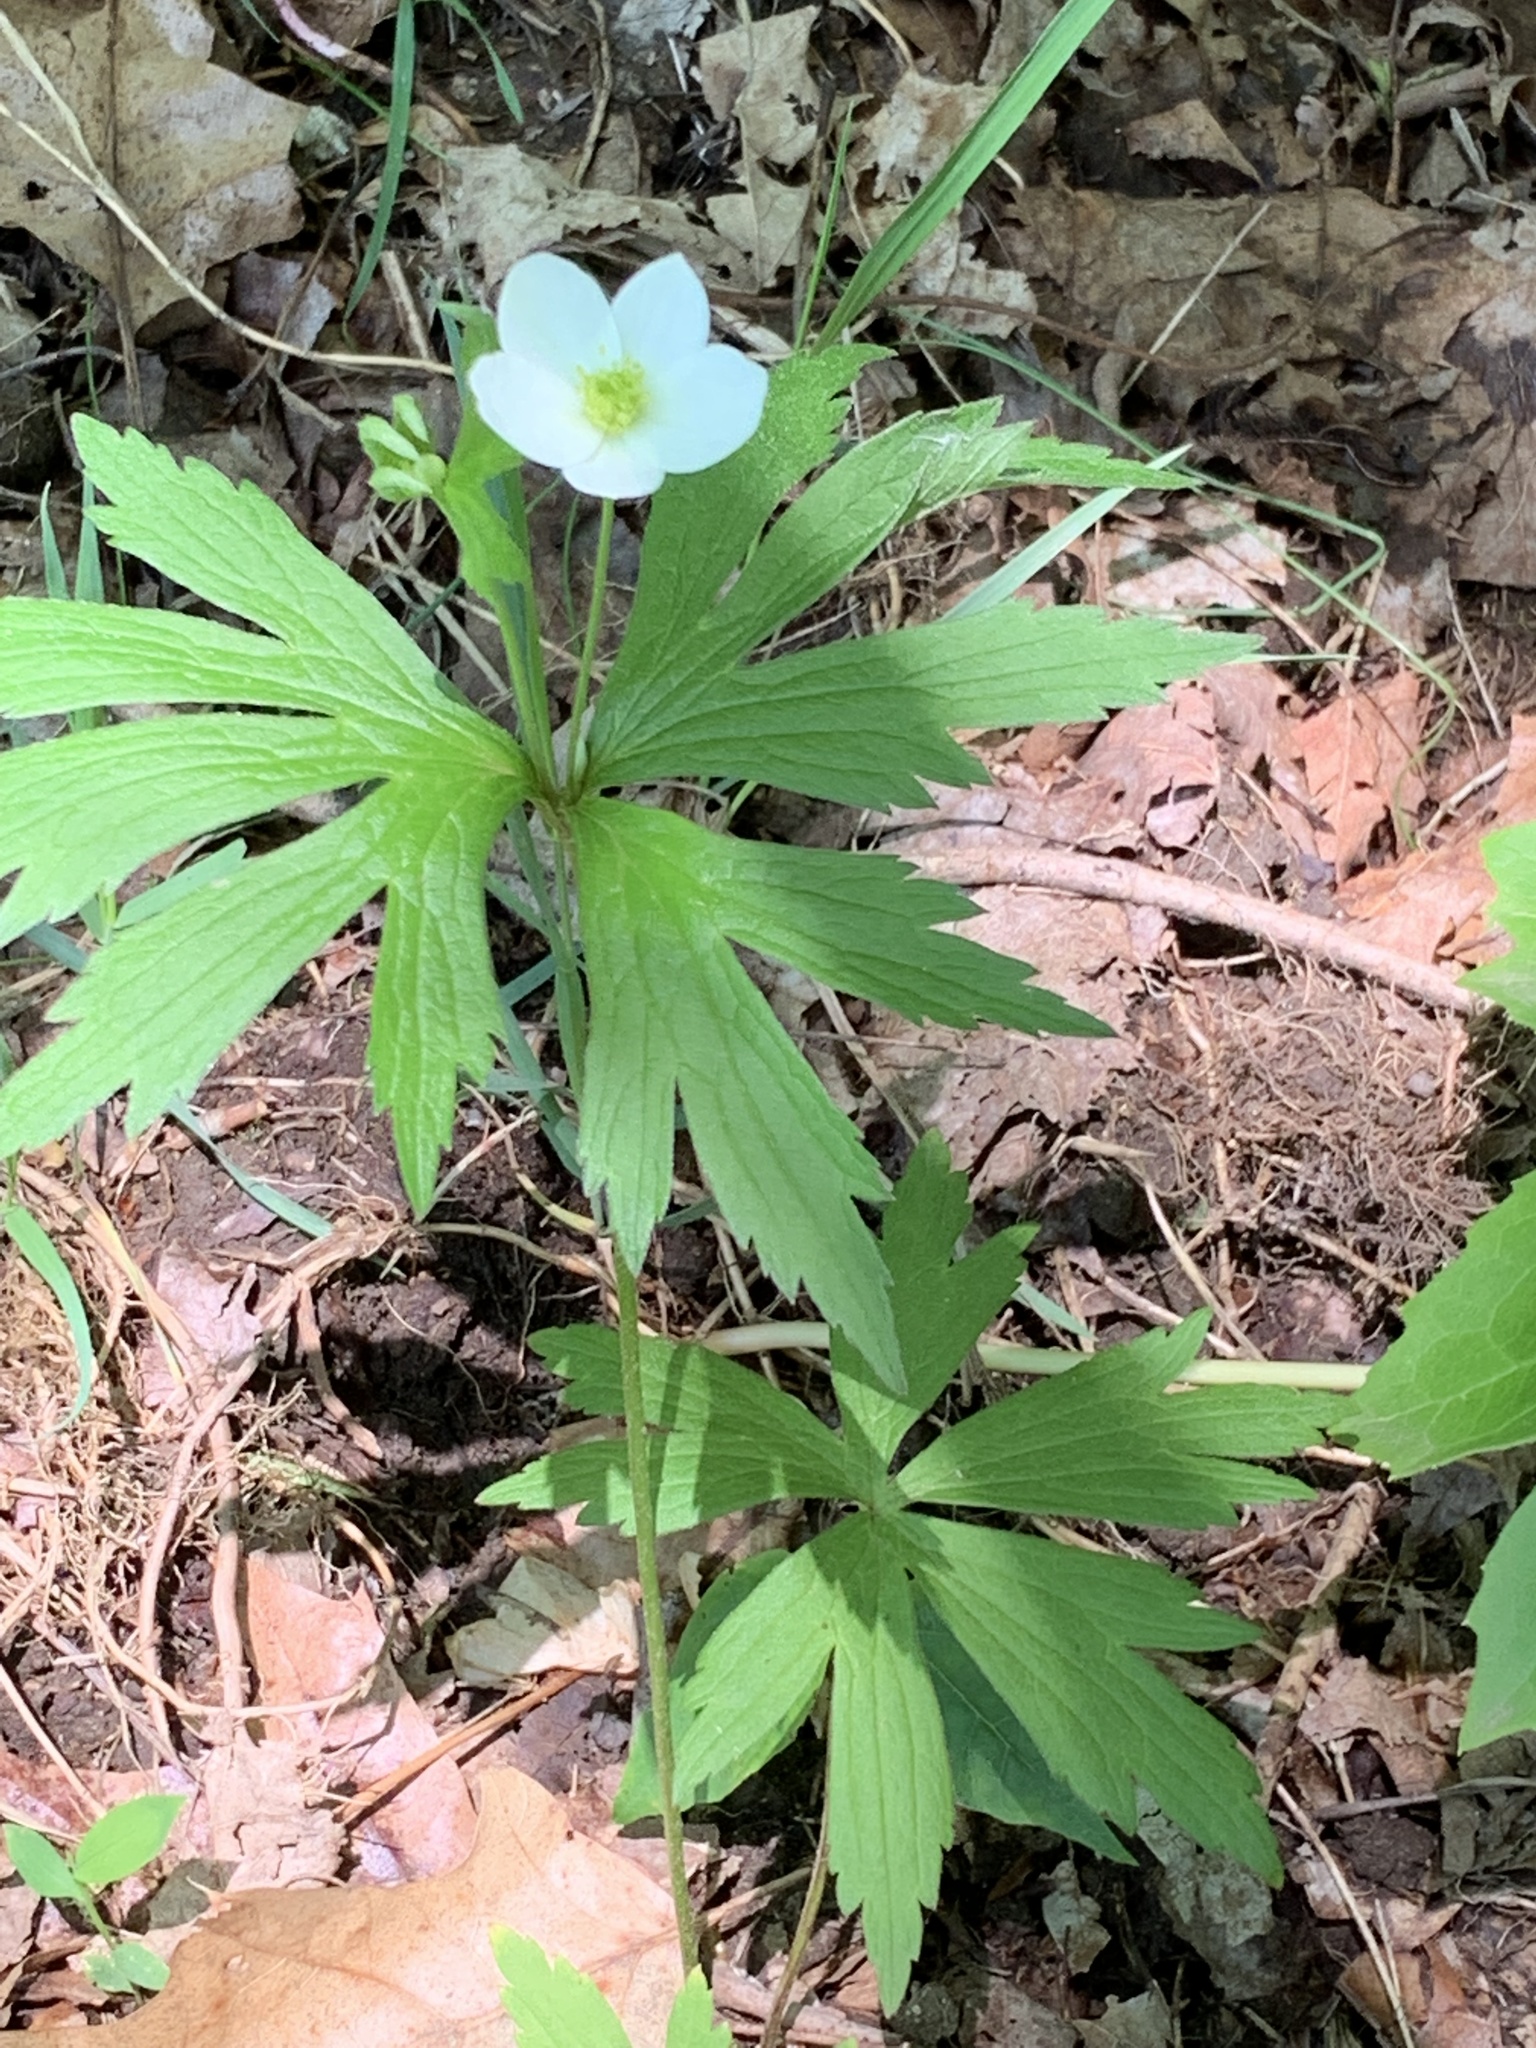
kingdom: Plantae
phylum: Tracheophyta
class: Magnoliopsida
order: Ranunculales
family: Ranunculaceae
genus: Anemonastrum
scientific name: Anemonastrum canadense
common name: Canada anemone
